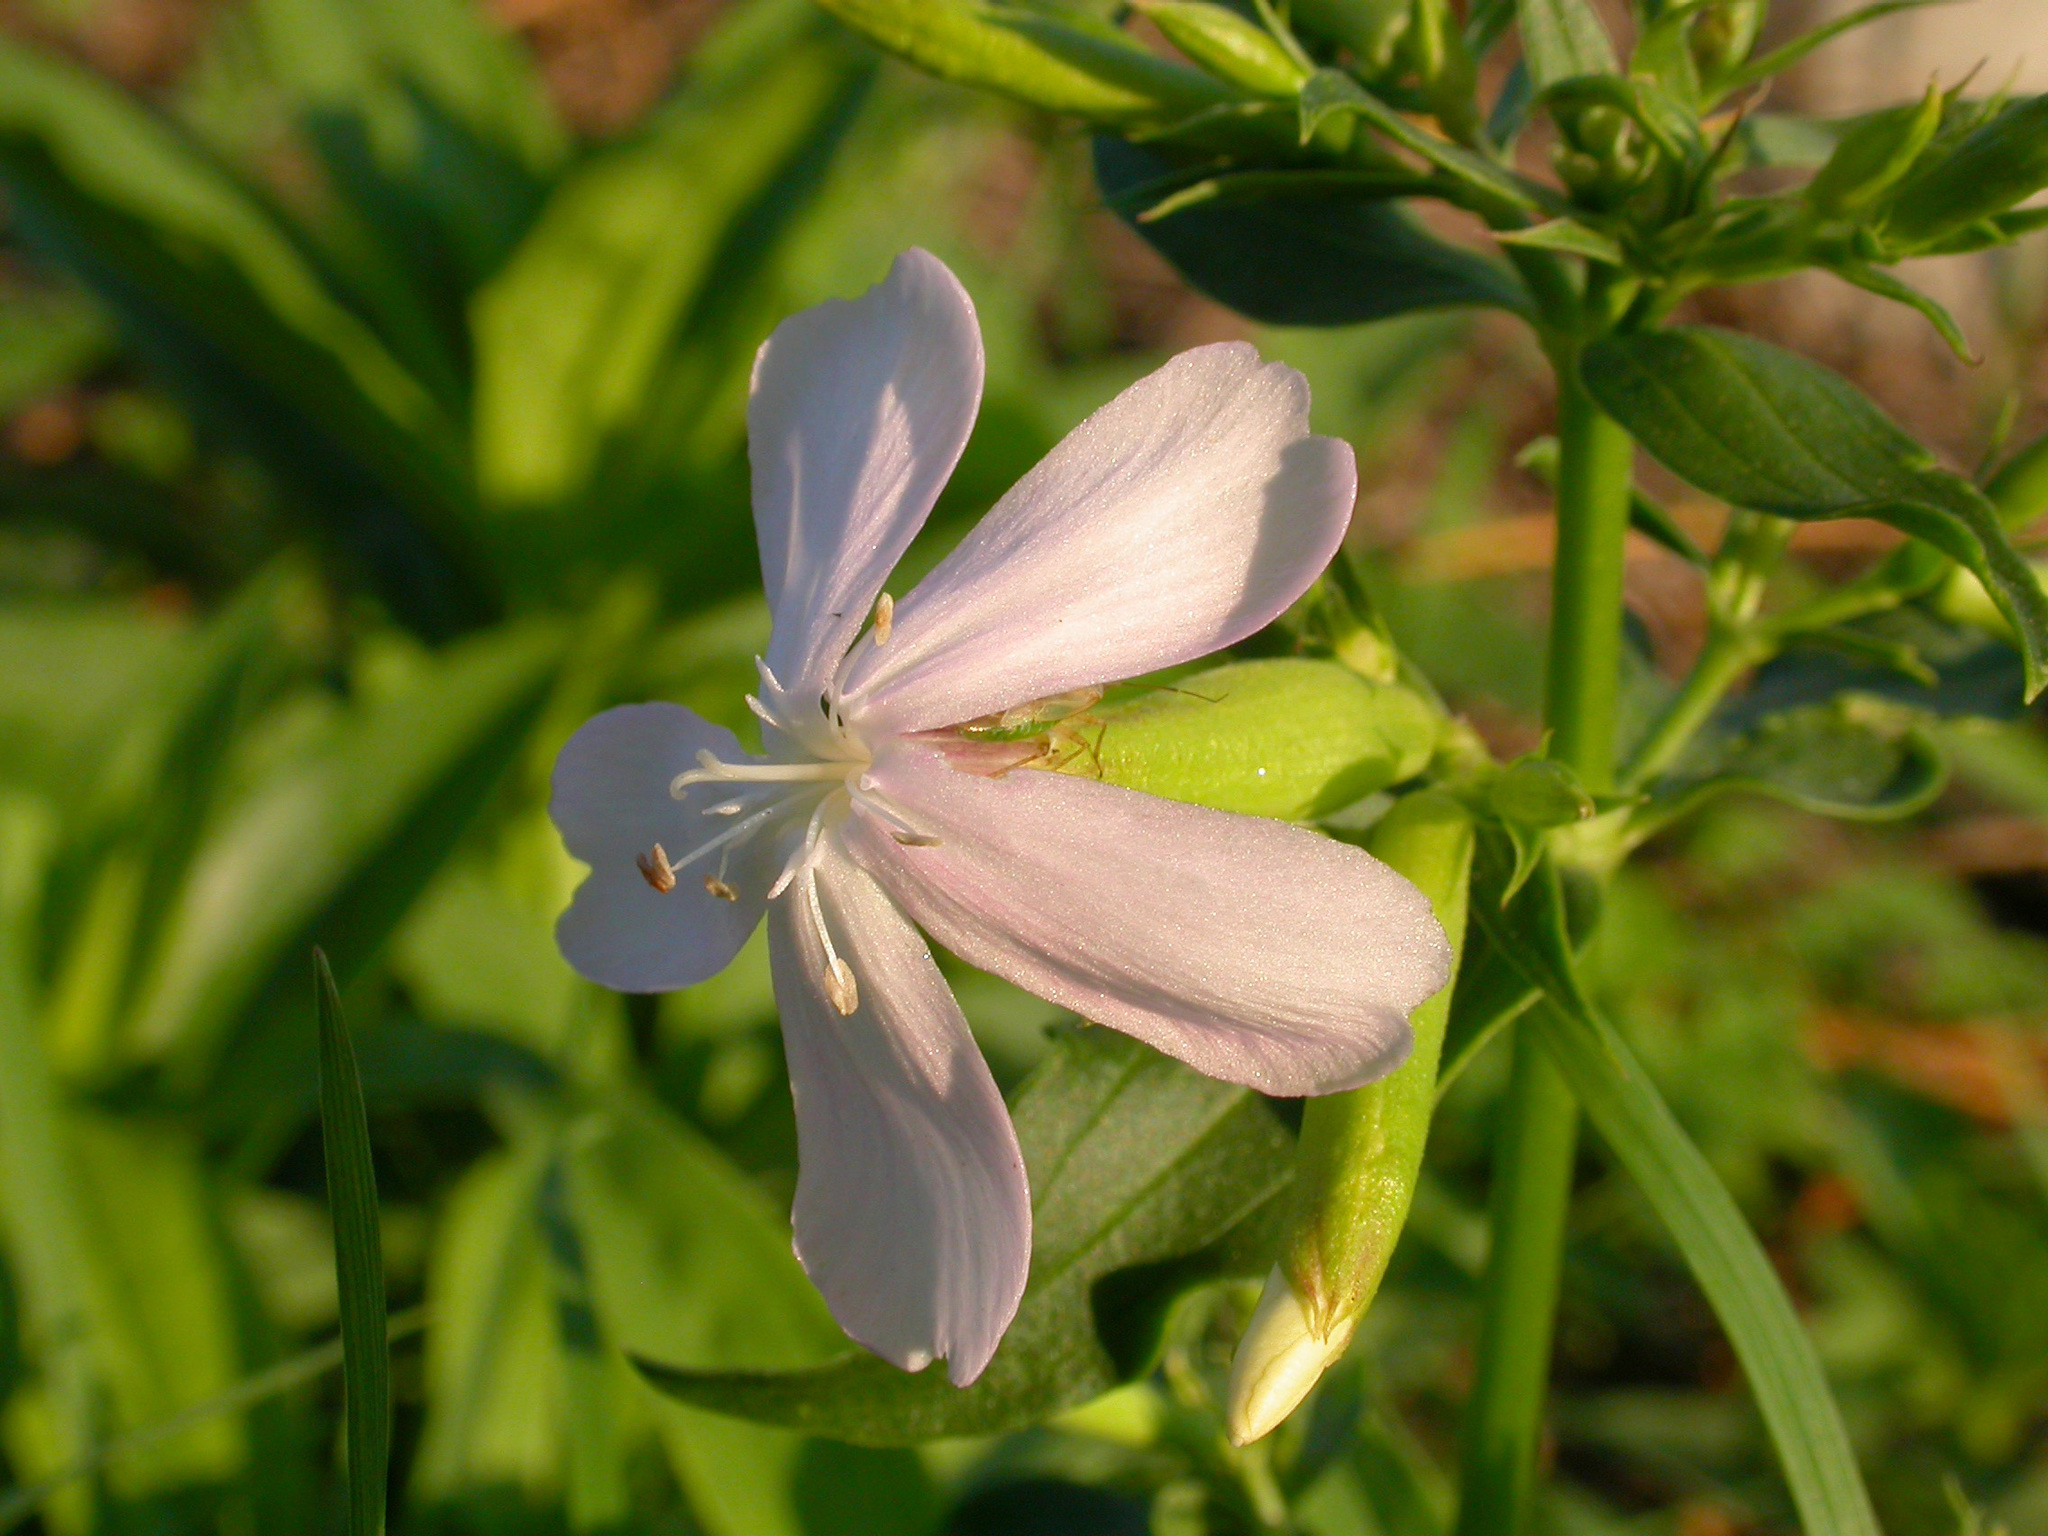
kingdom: Plantae
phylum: Tracheophyta
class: Magnoliopsida
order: Caryophyllales
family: Caryophyllaceae
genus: Saponaria
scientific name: Saponaria officinalis
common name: Soapwort
